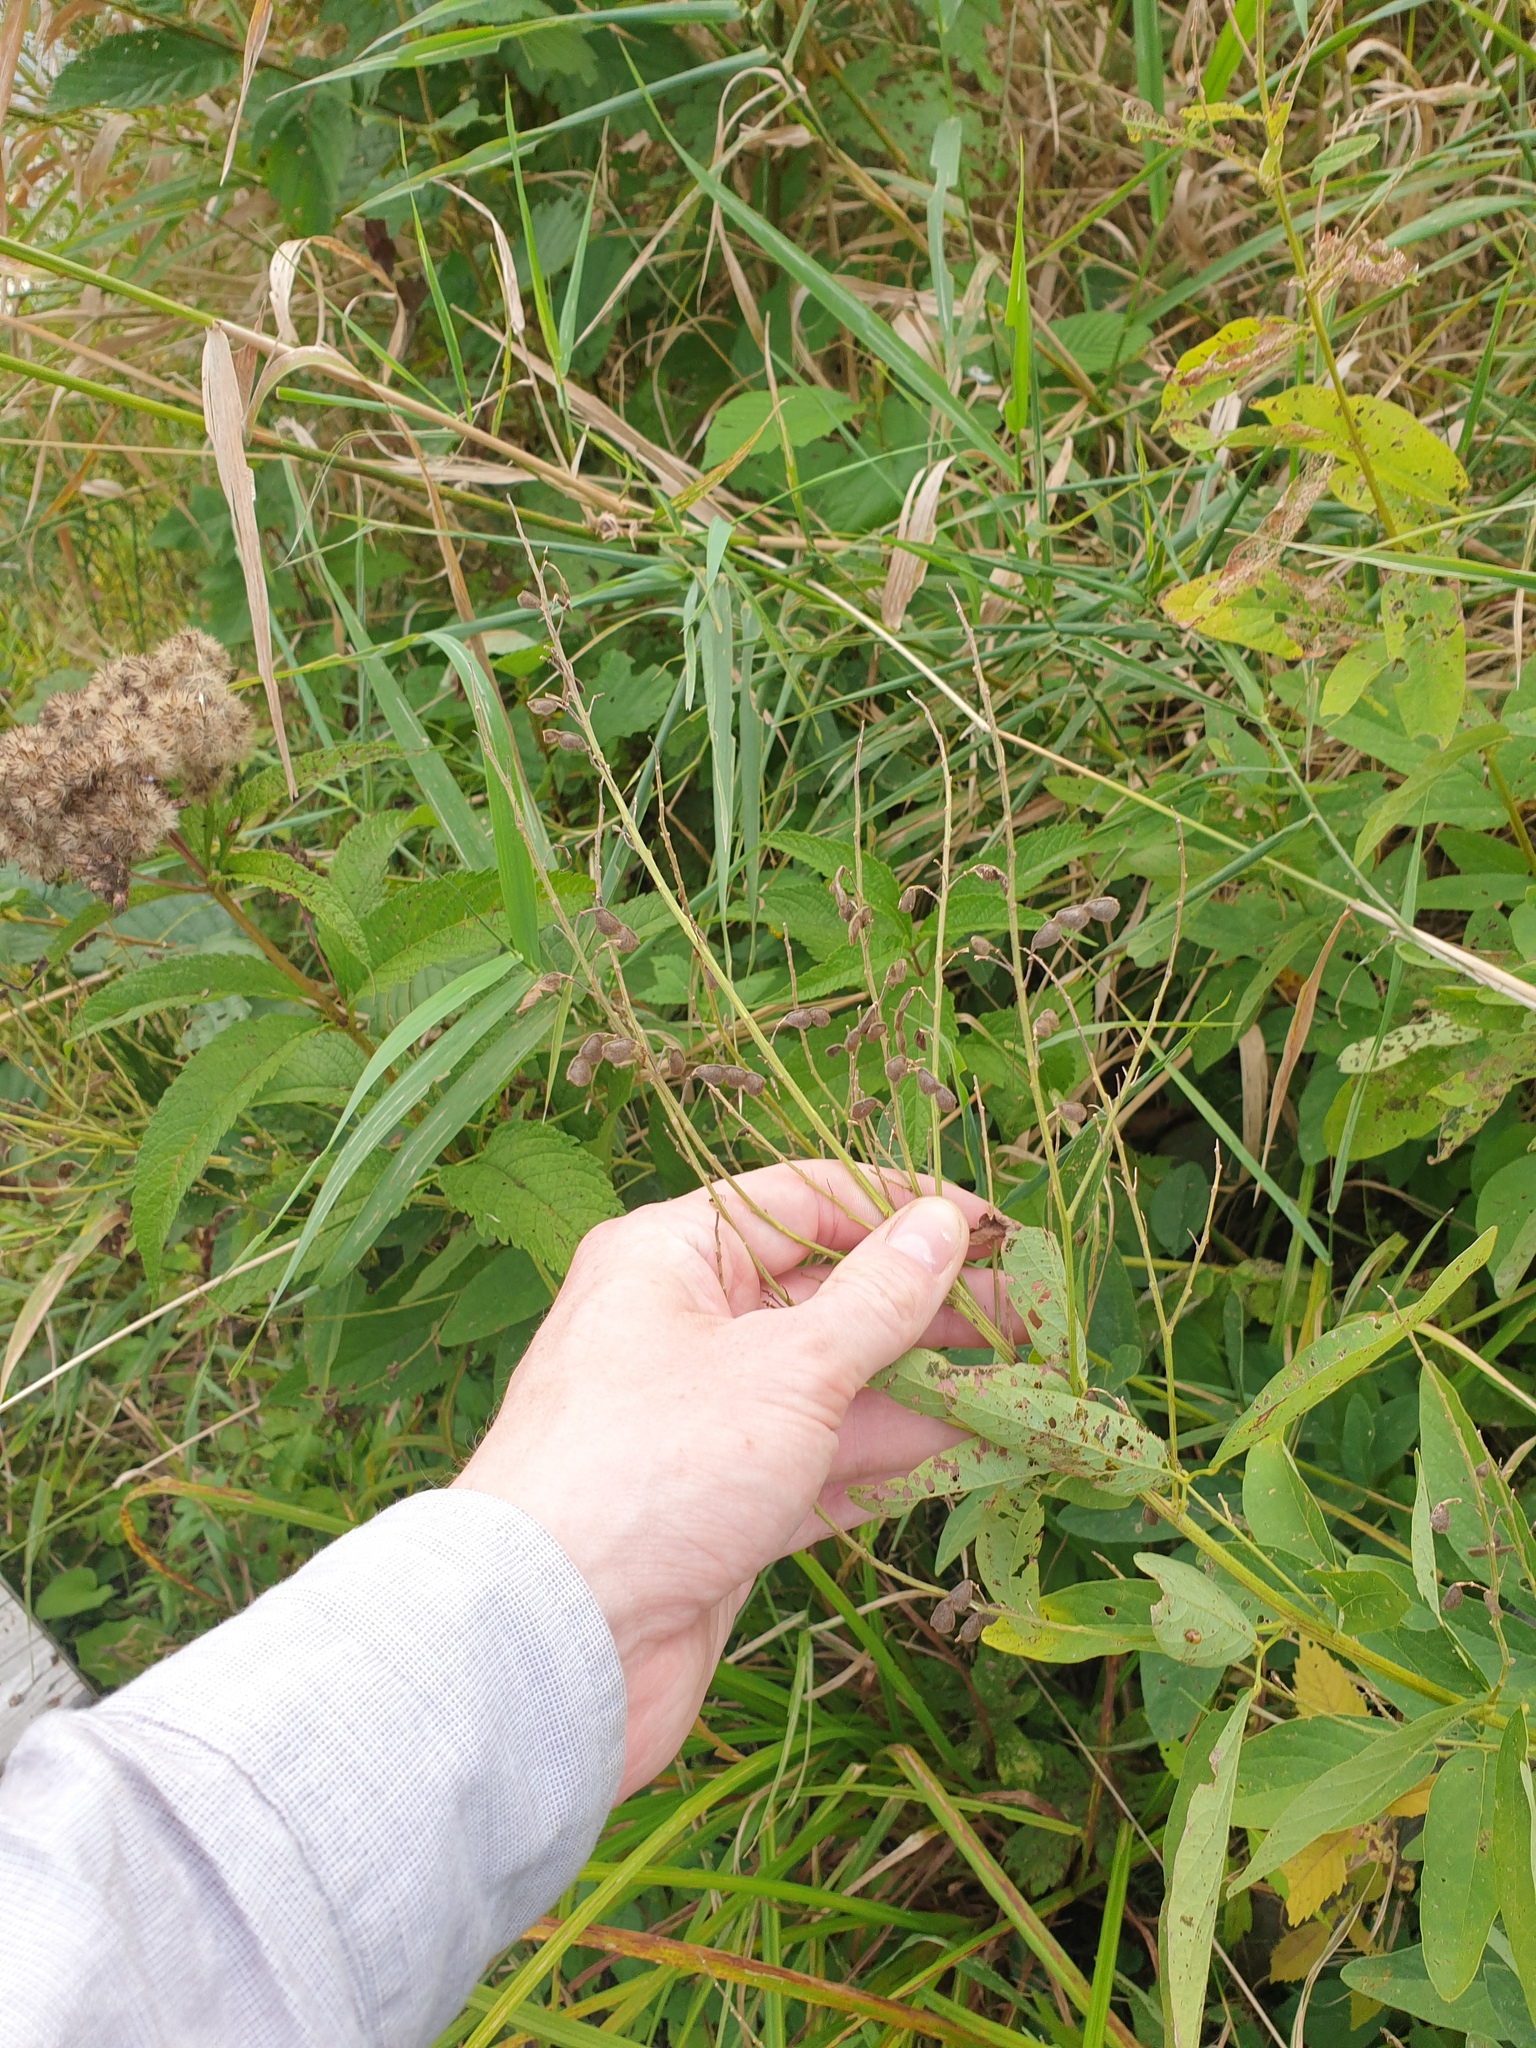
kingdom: Plantae
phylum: Tracheophyta
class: Magnoliopsida
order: Fabales
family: Fabaceae
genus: Desmodium
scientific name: Desmodium canadense
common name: Canada tick-trefoil
